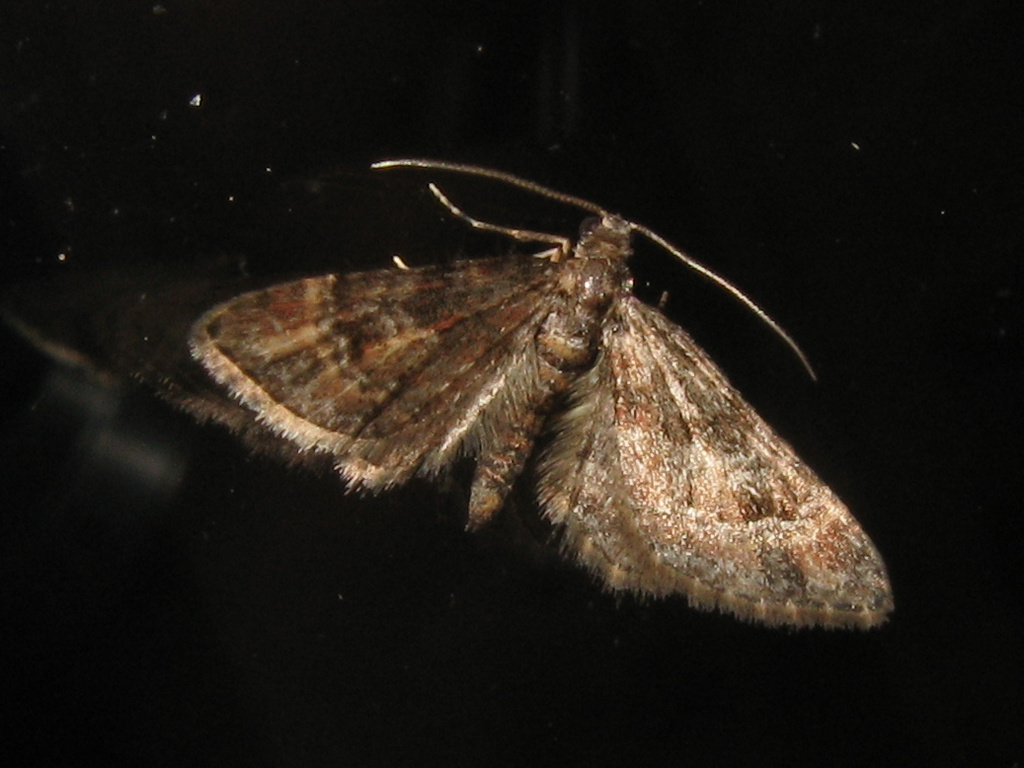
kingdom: Animalia
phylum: Arthropoda
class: Insecta
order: Lepidoptera
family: Geometridae
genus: Gymnoscelis
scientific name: Gymnoscelis rufifasciata
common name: Double-striped pug
